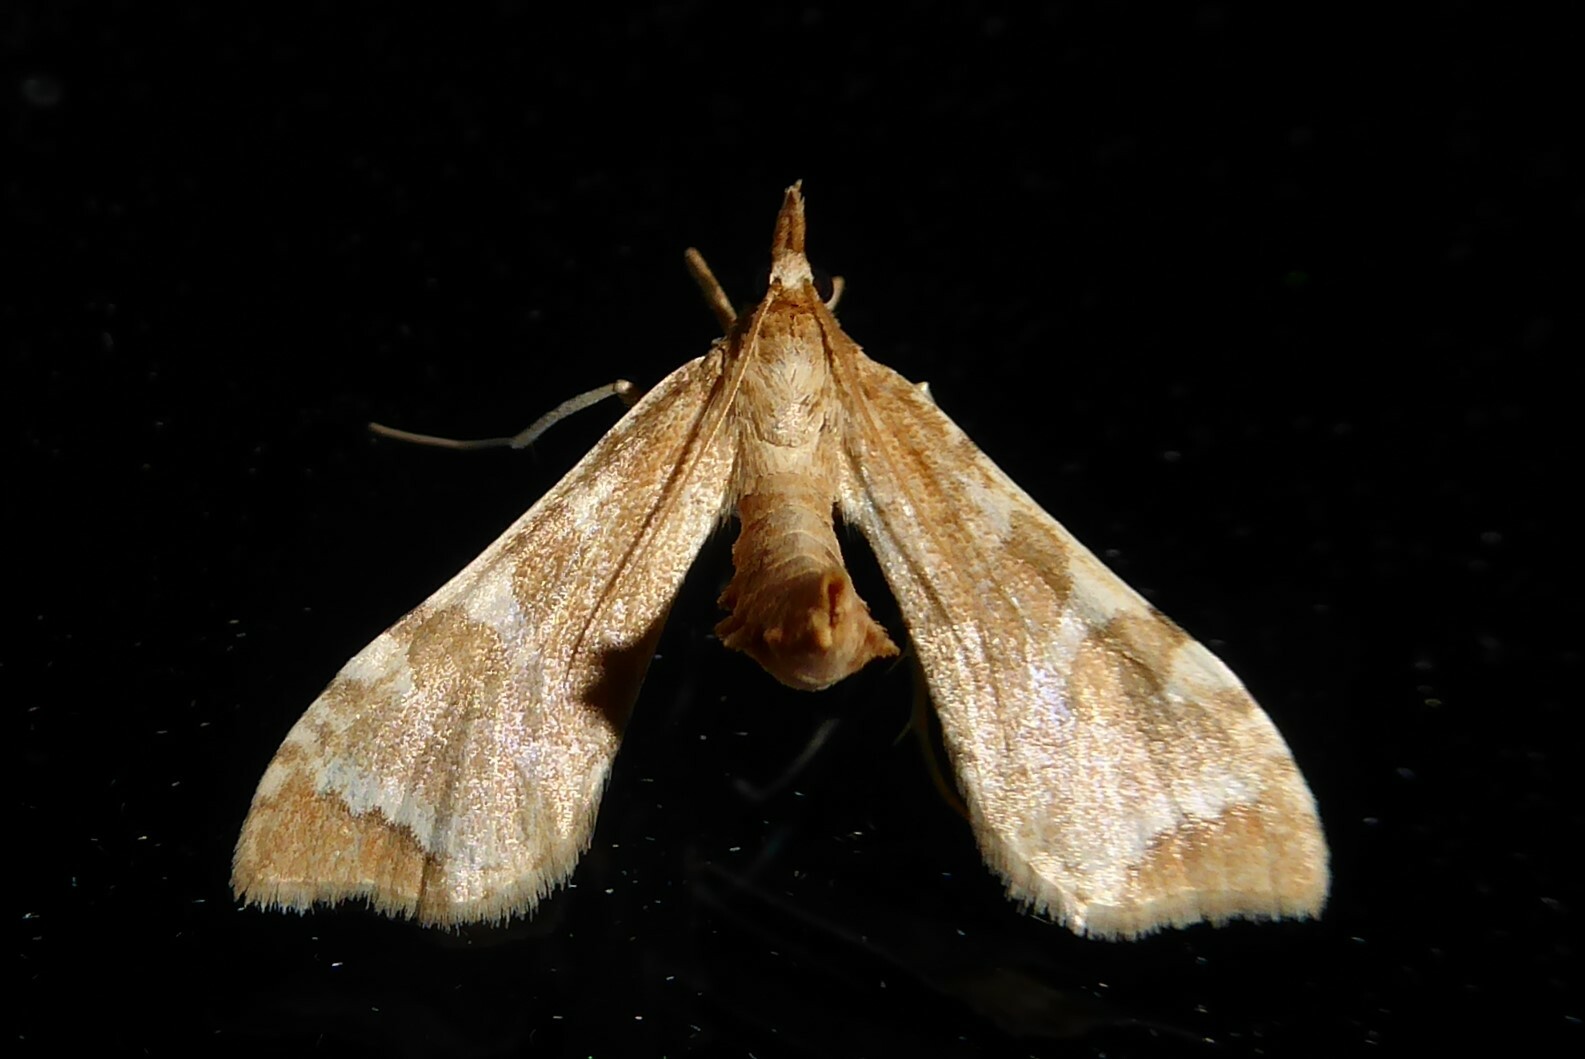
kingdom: Animalia
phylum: Arthropoda
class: Insecta
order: Lepidoptera
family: Crambidae
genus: Sceliodes
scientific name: Sceliodes cordalis
